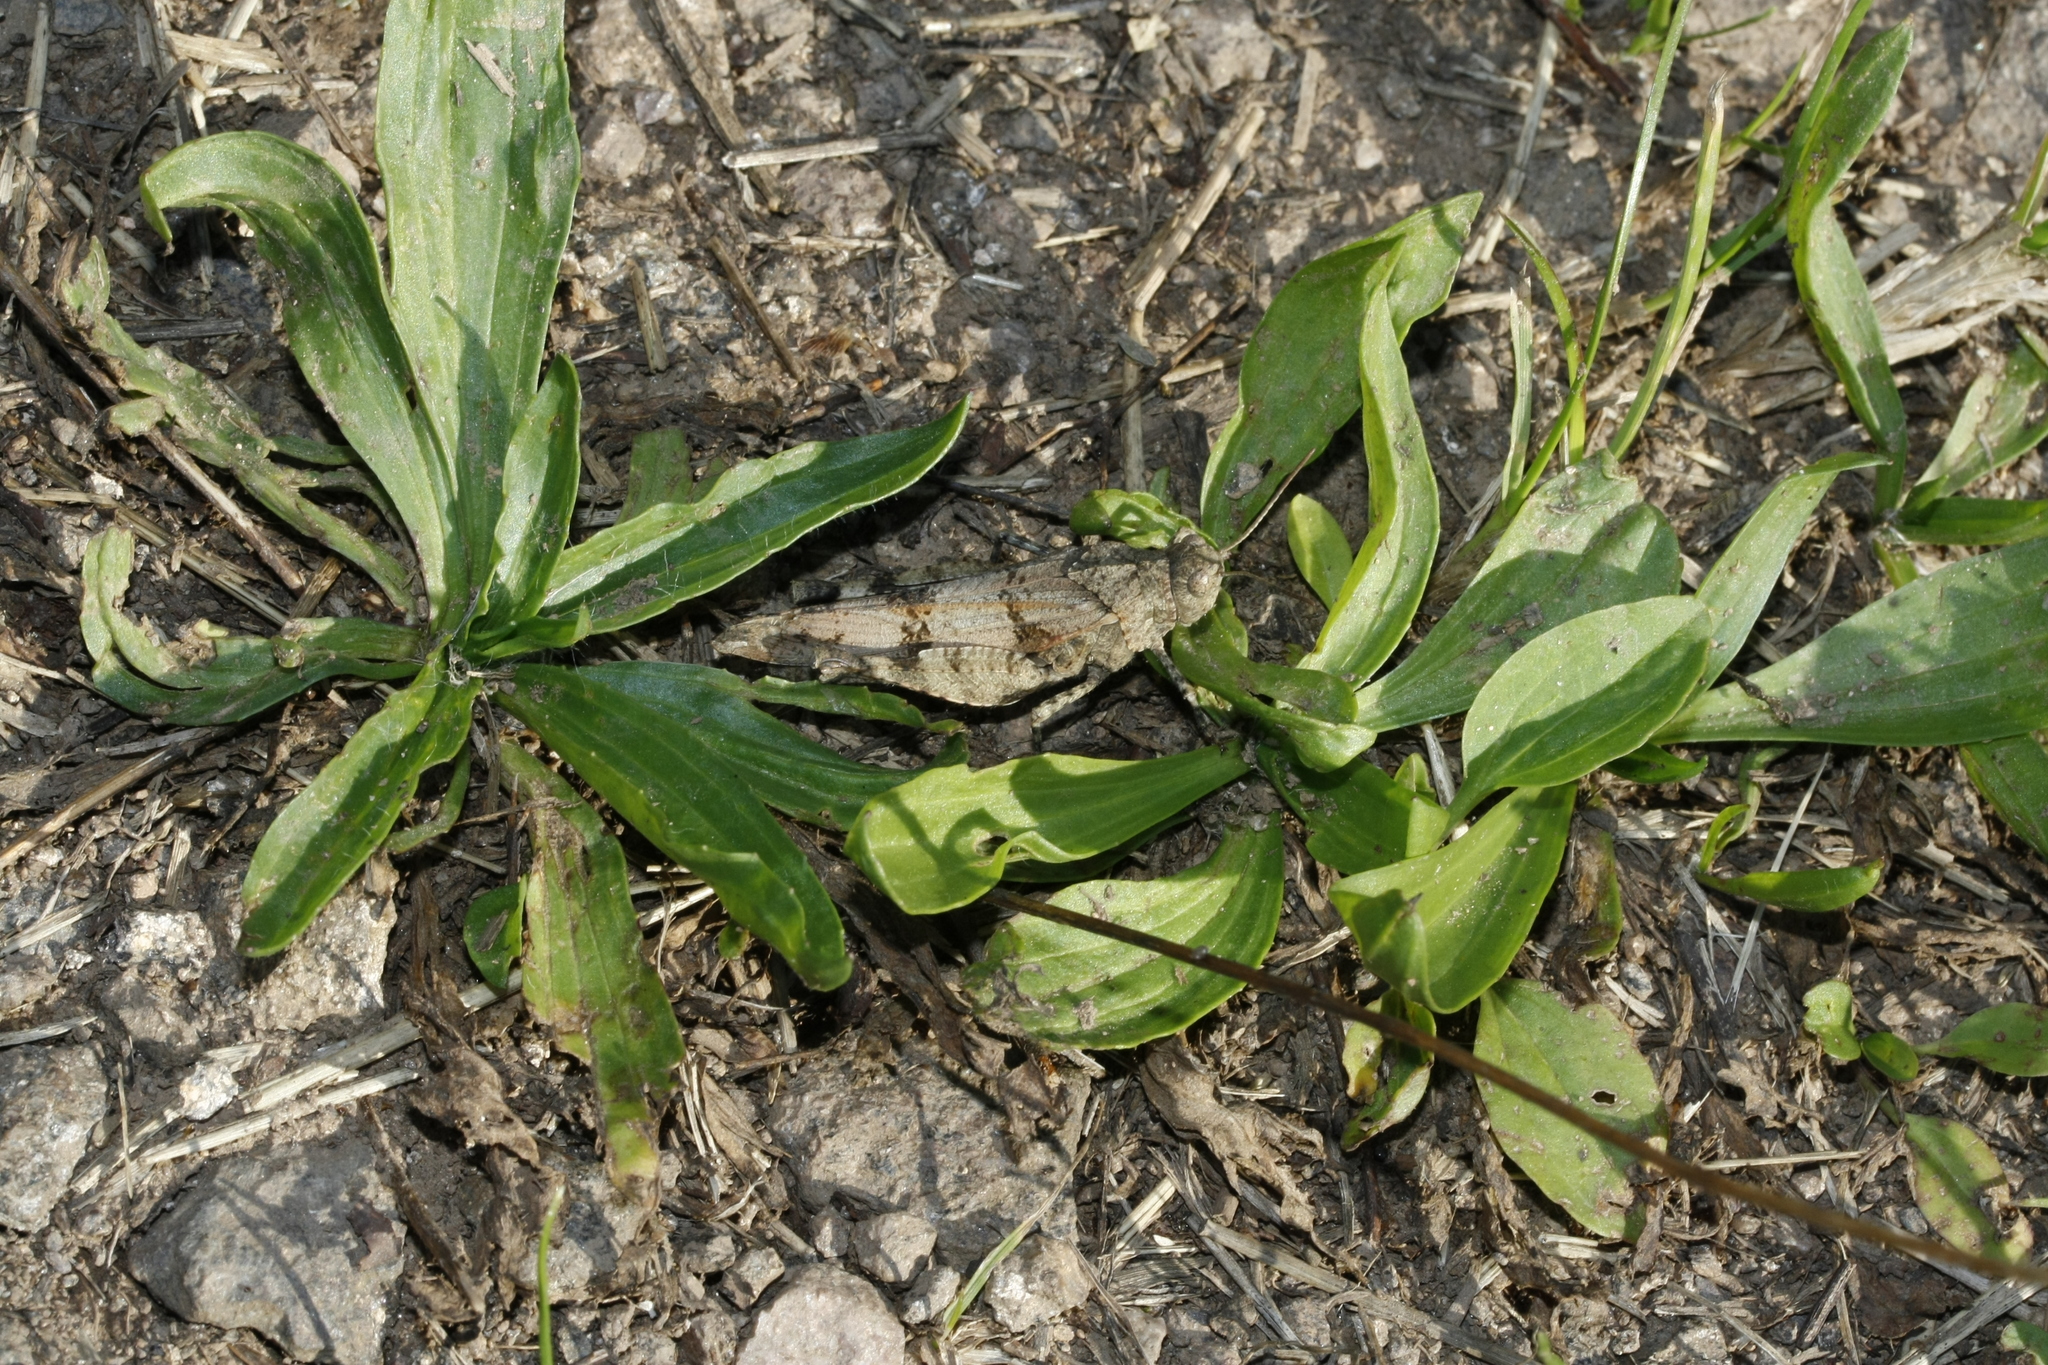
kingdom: Animalia
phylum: Arthropoda
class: Insecta
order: Orthoptera
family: Acrididae
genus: Oedipoda
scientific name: Oedipoda caerulescens
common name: Blue-winged grasshopper
